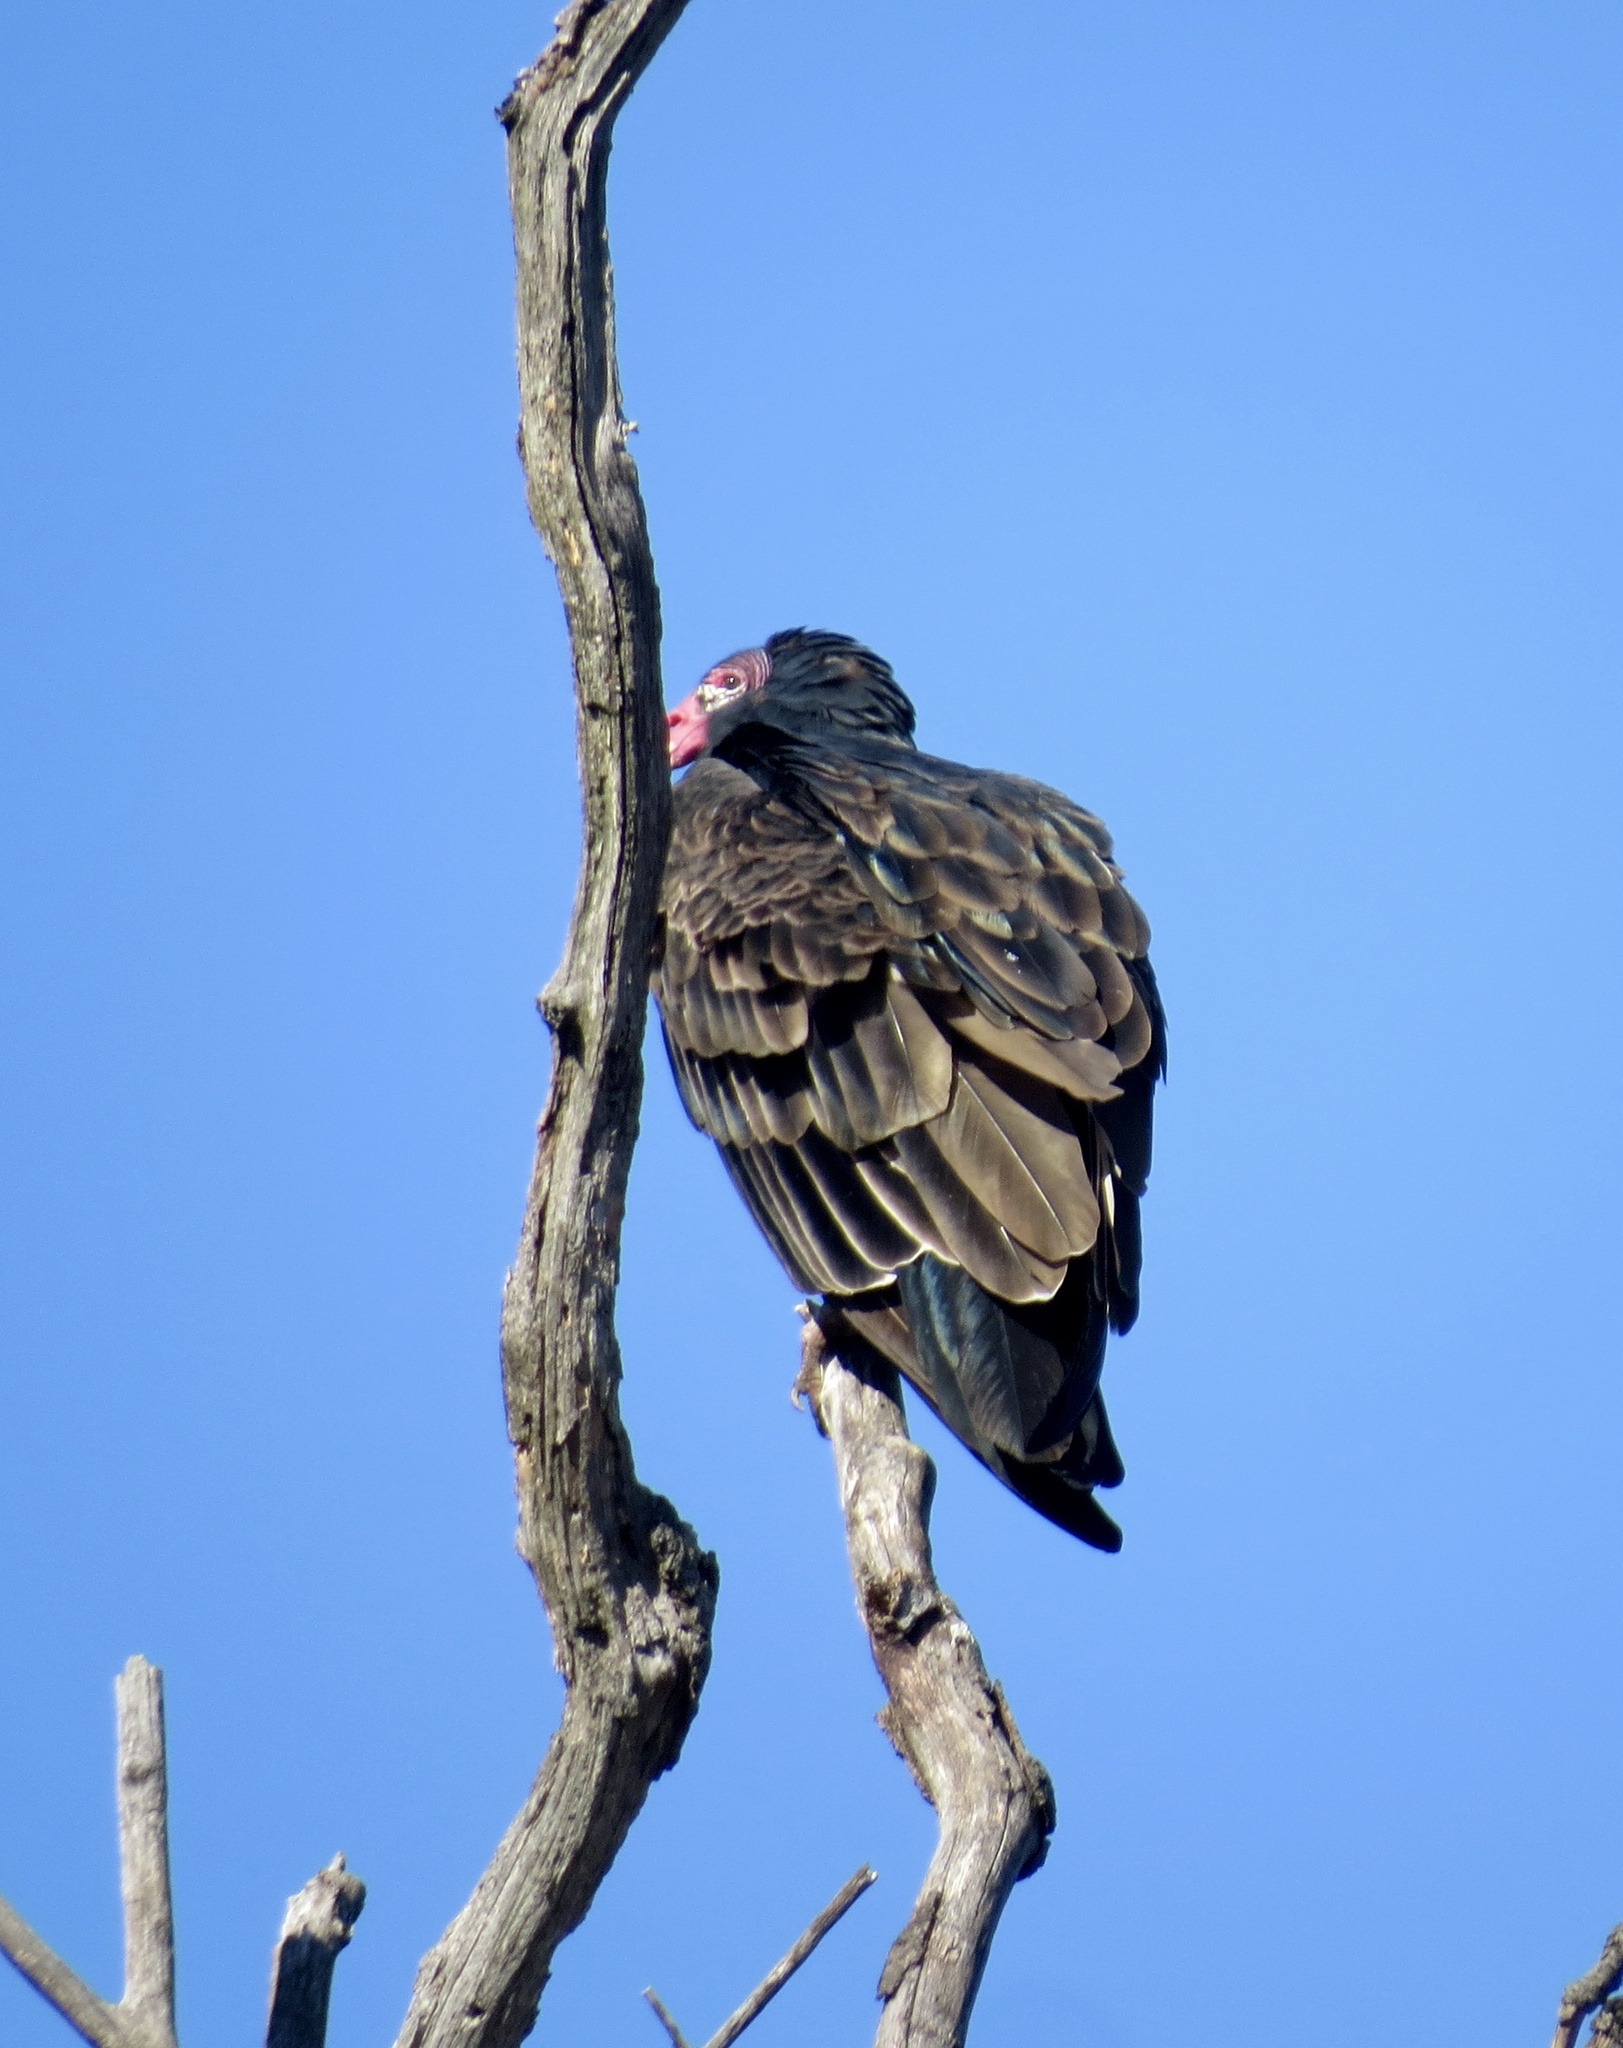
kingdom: Animalia
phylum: Chordata
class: Aves
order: Accipitriformes
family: Cathartidae
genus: Cathartes
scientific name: Cathartes aura
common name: Turkey vulture
